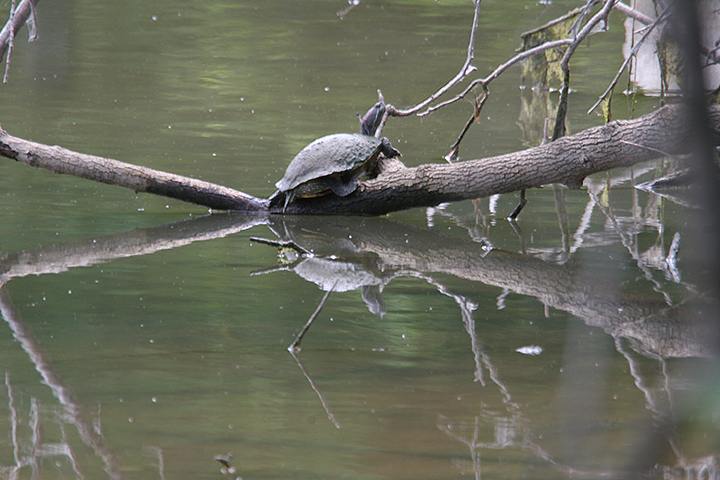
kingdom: Animalia
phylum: Chordata
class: Testudines
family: Emydidae
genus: Trachemys
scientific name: Trachemys scripta
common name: Slider
